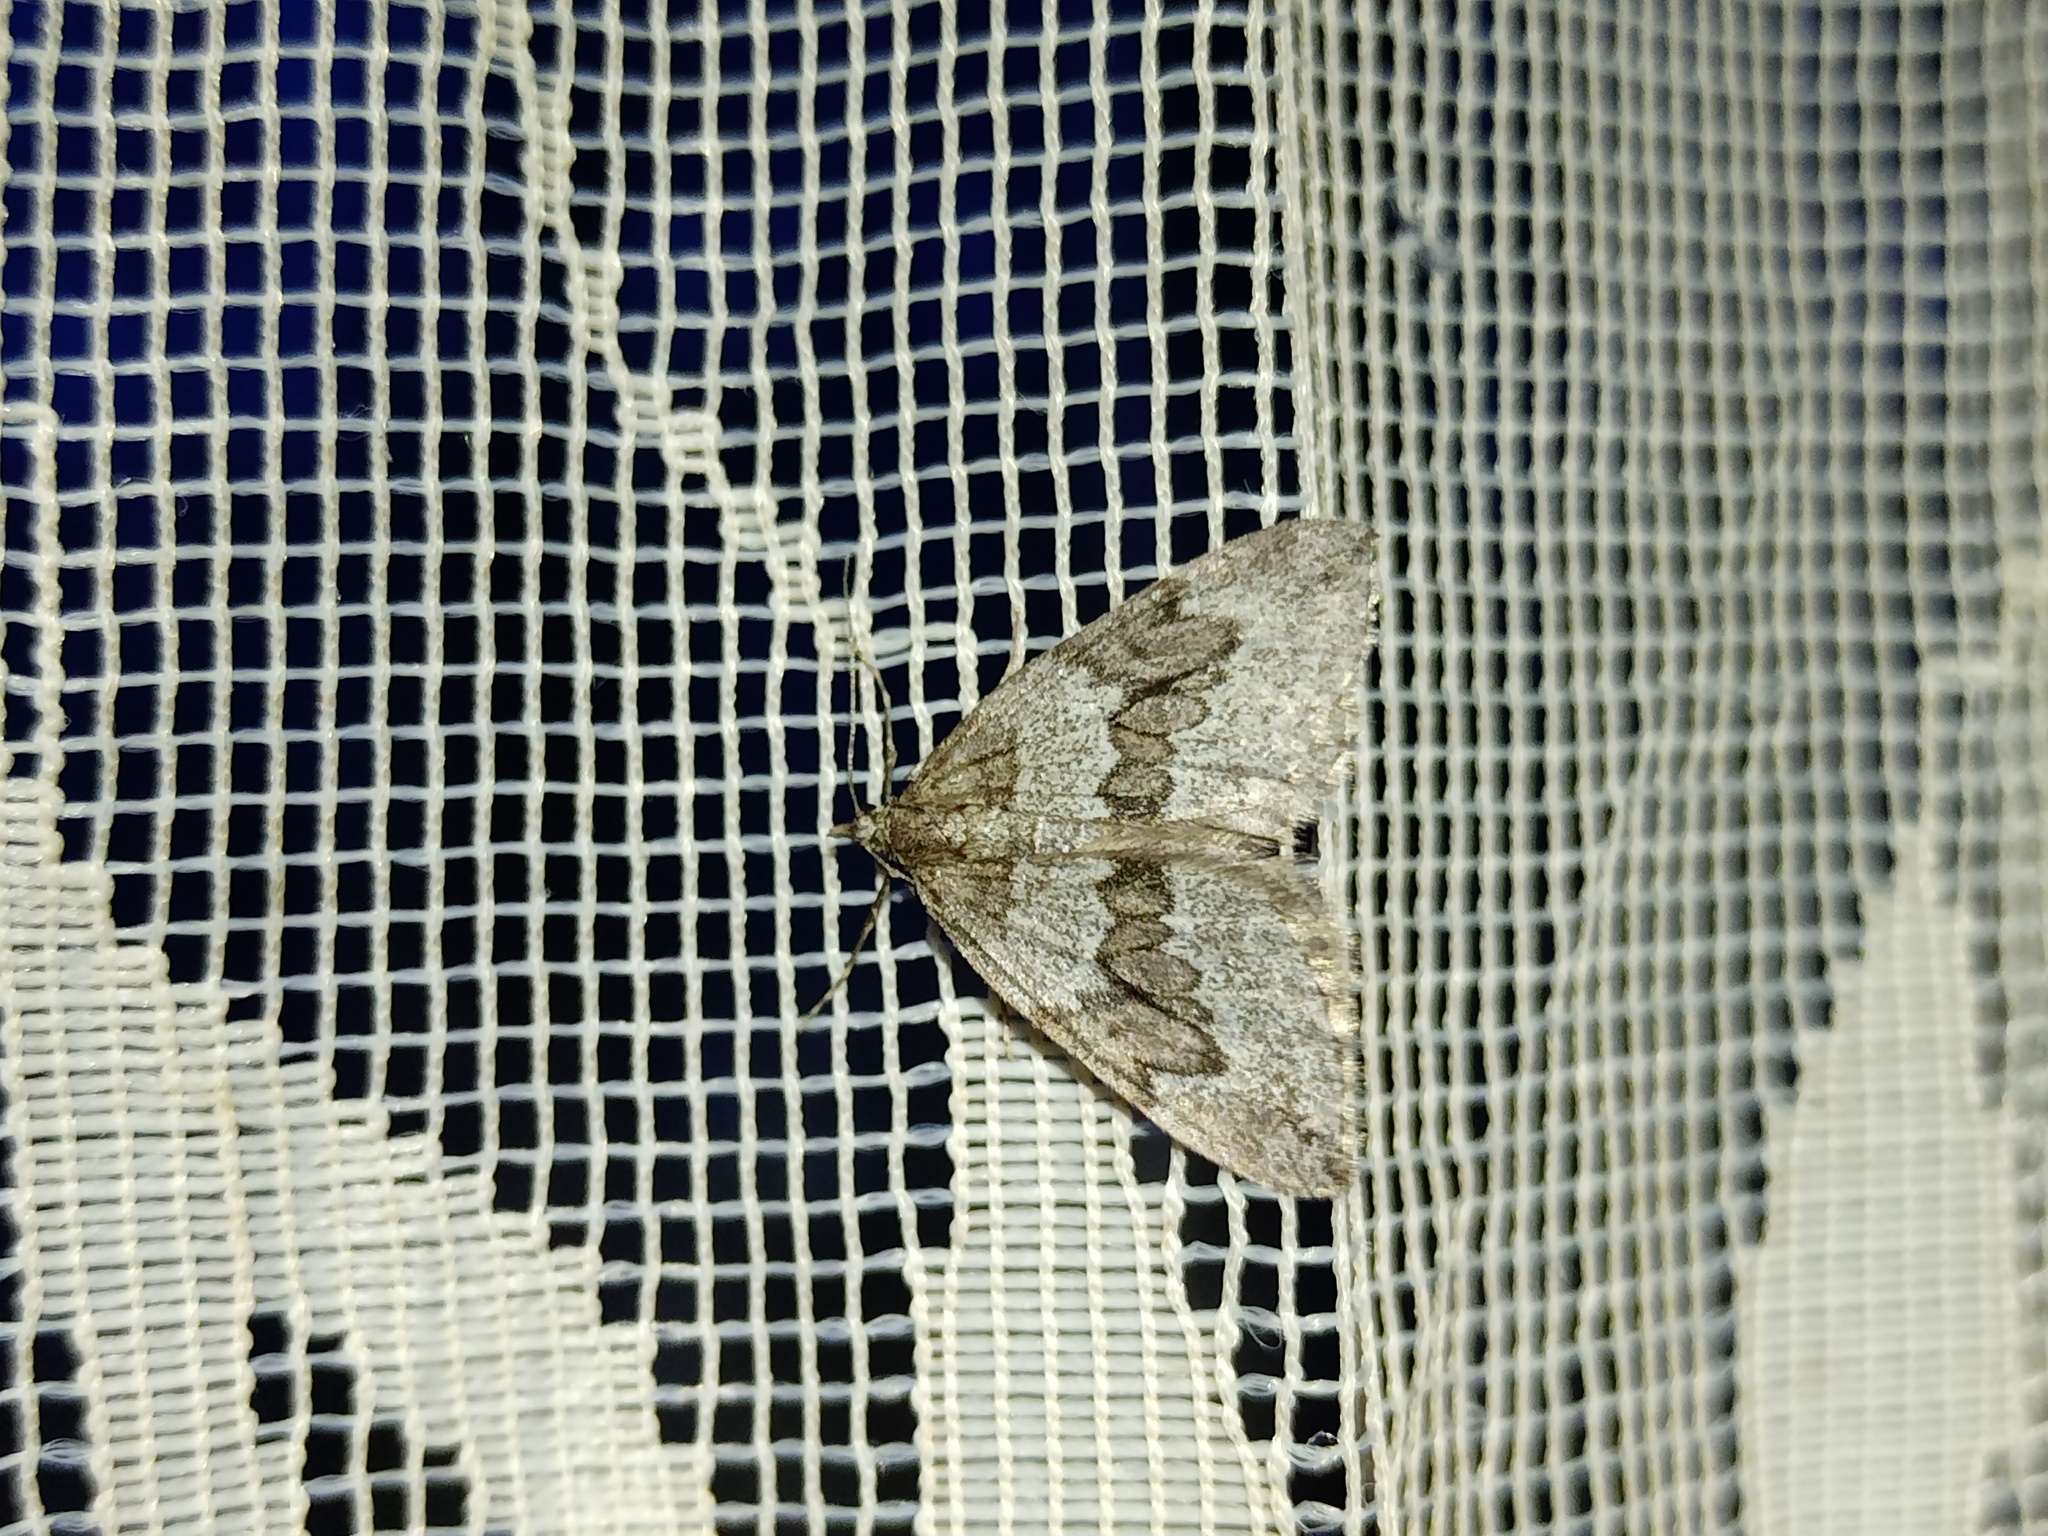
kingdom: Animalia
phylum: Arthropoda
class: Insecta
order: Lepidoptera
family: Geometridae
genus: Thera
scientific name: Thera juniperata
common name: Juniper carpet
